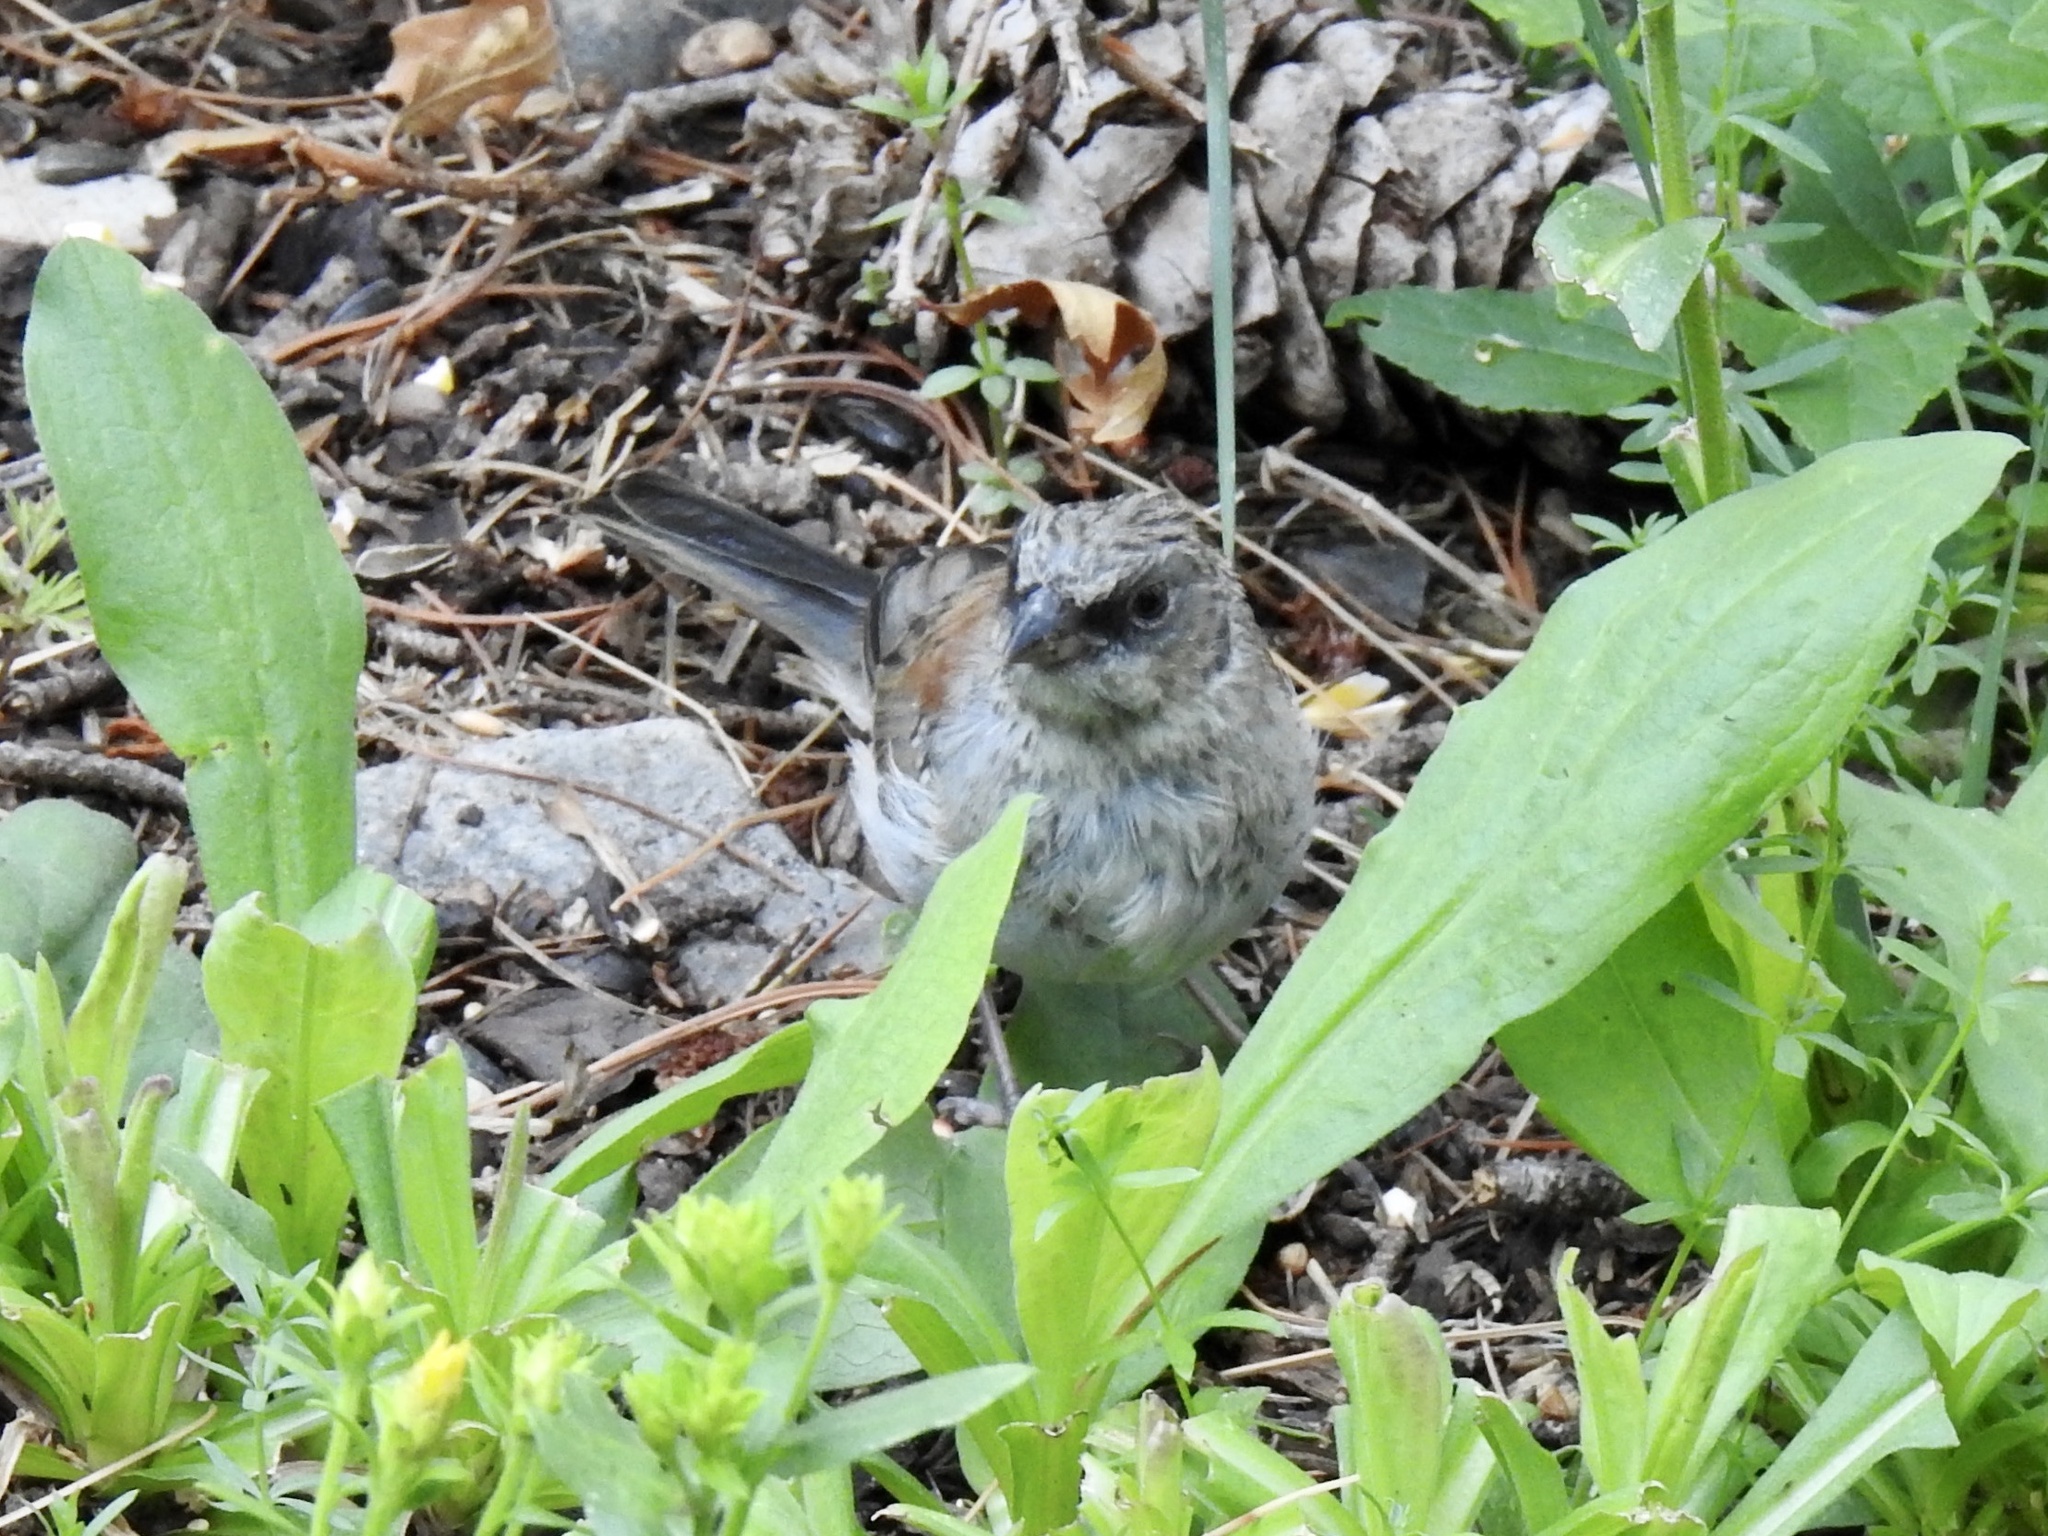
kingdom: Animalia
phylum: Chordata
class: Aves
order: Passeriformes
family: Passerellidae
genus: Junco
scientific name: Junco hyemalis
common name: Dark-eyed junco
